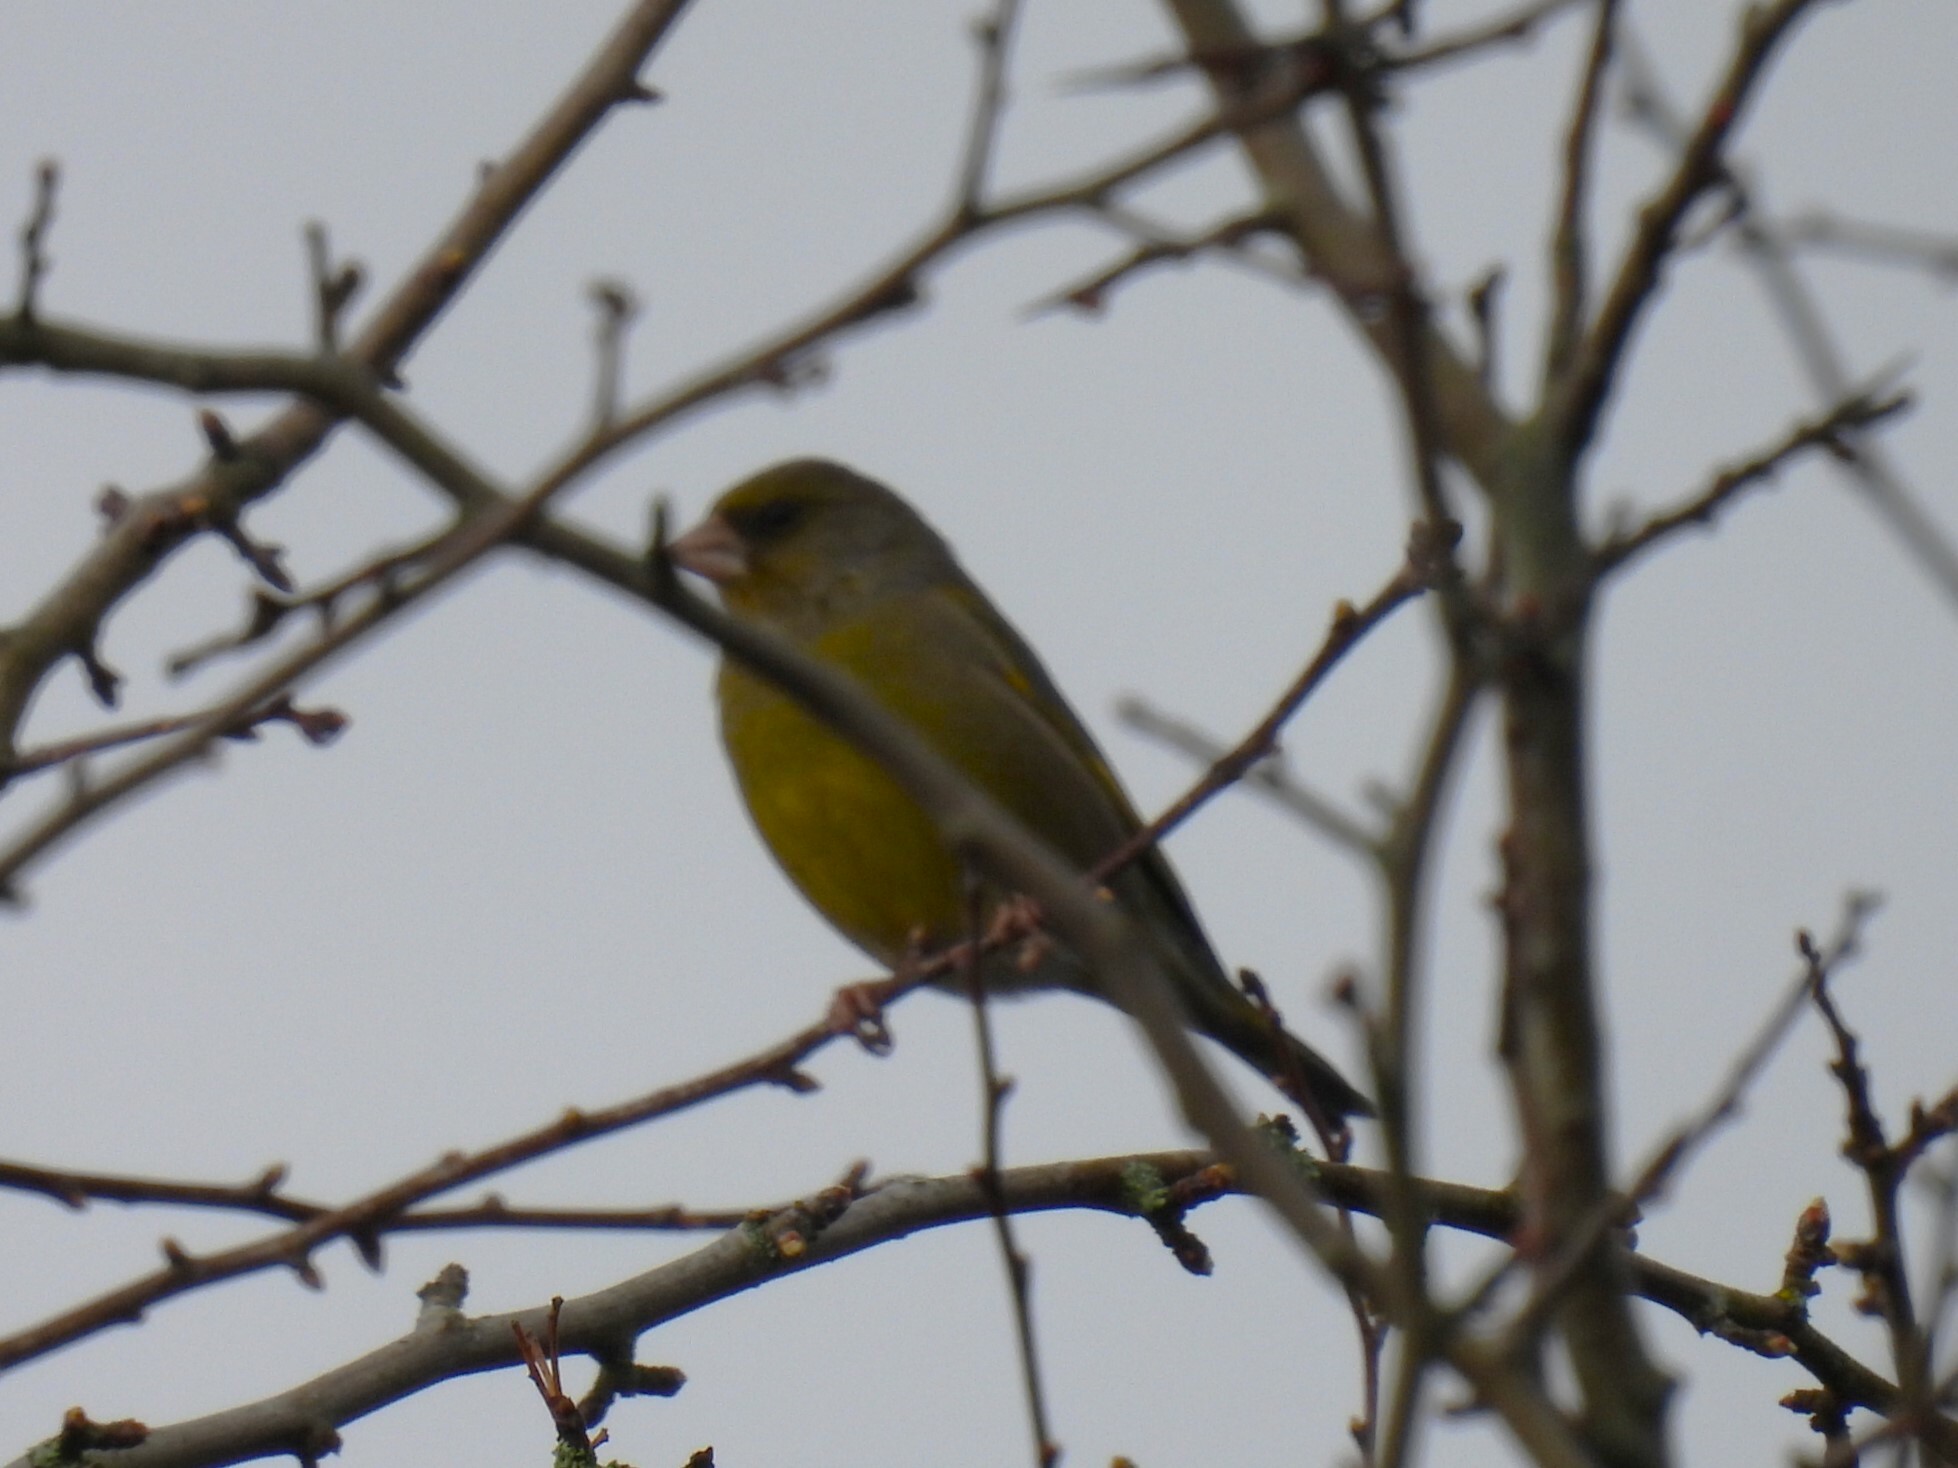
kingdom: Plantae
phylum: Tracheophyta
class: Liliopsida
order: Poales
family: Poaceae
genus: Chloris
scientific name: Chloris chloris
